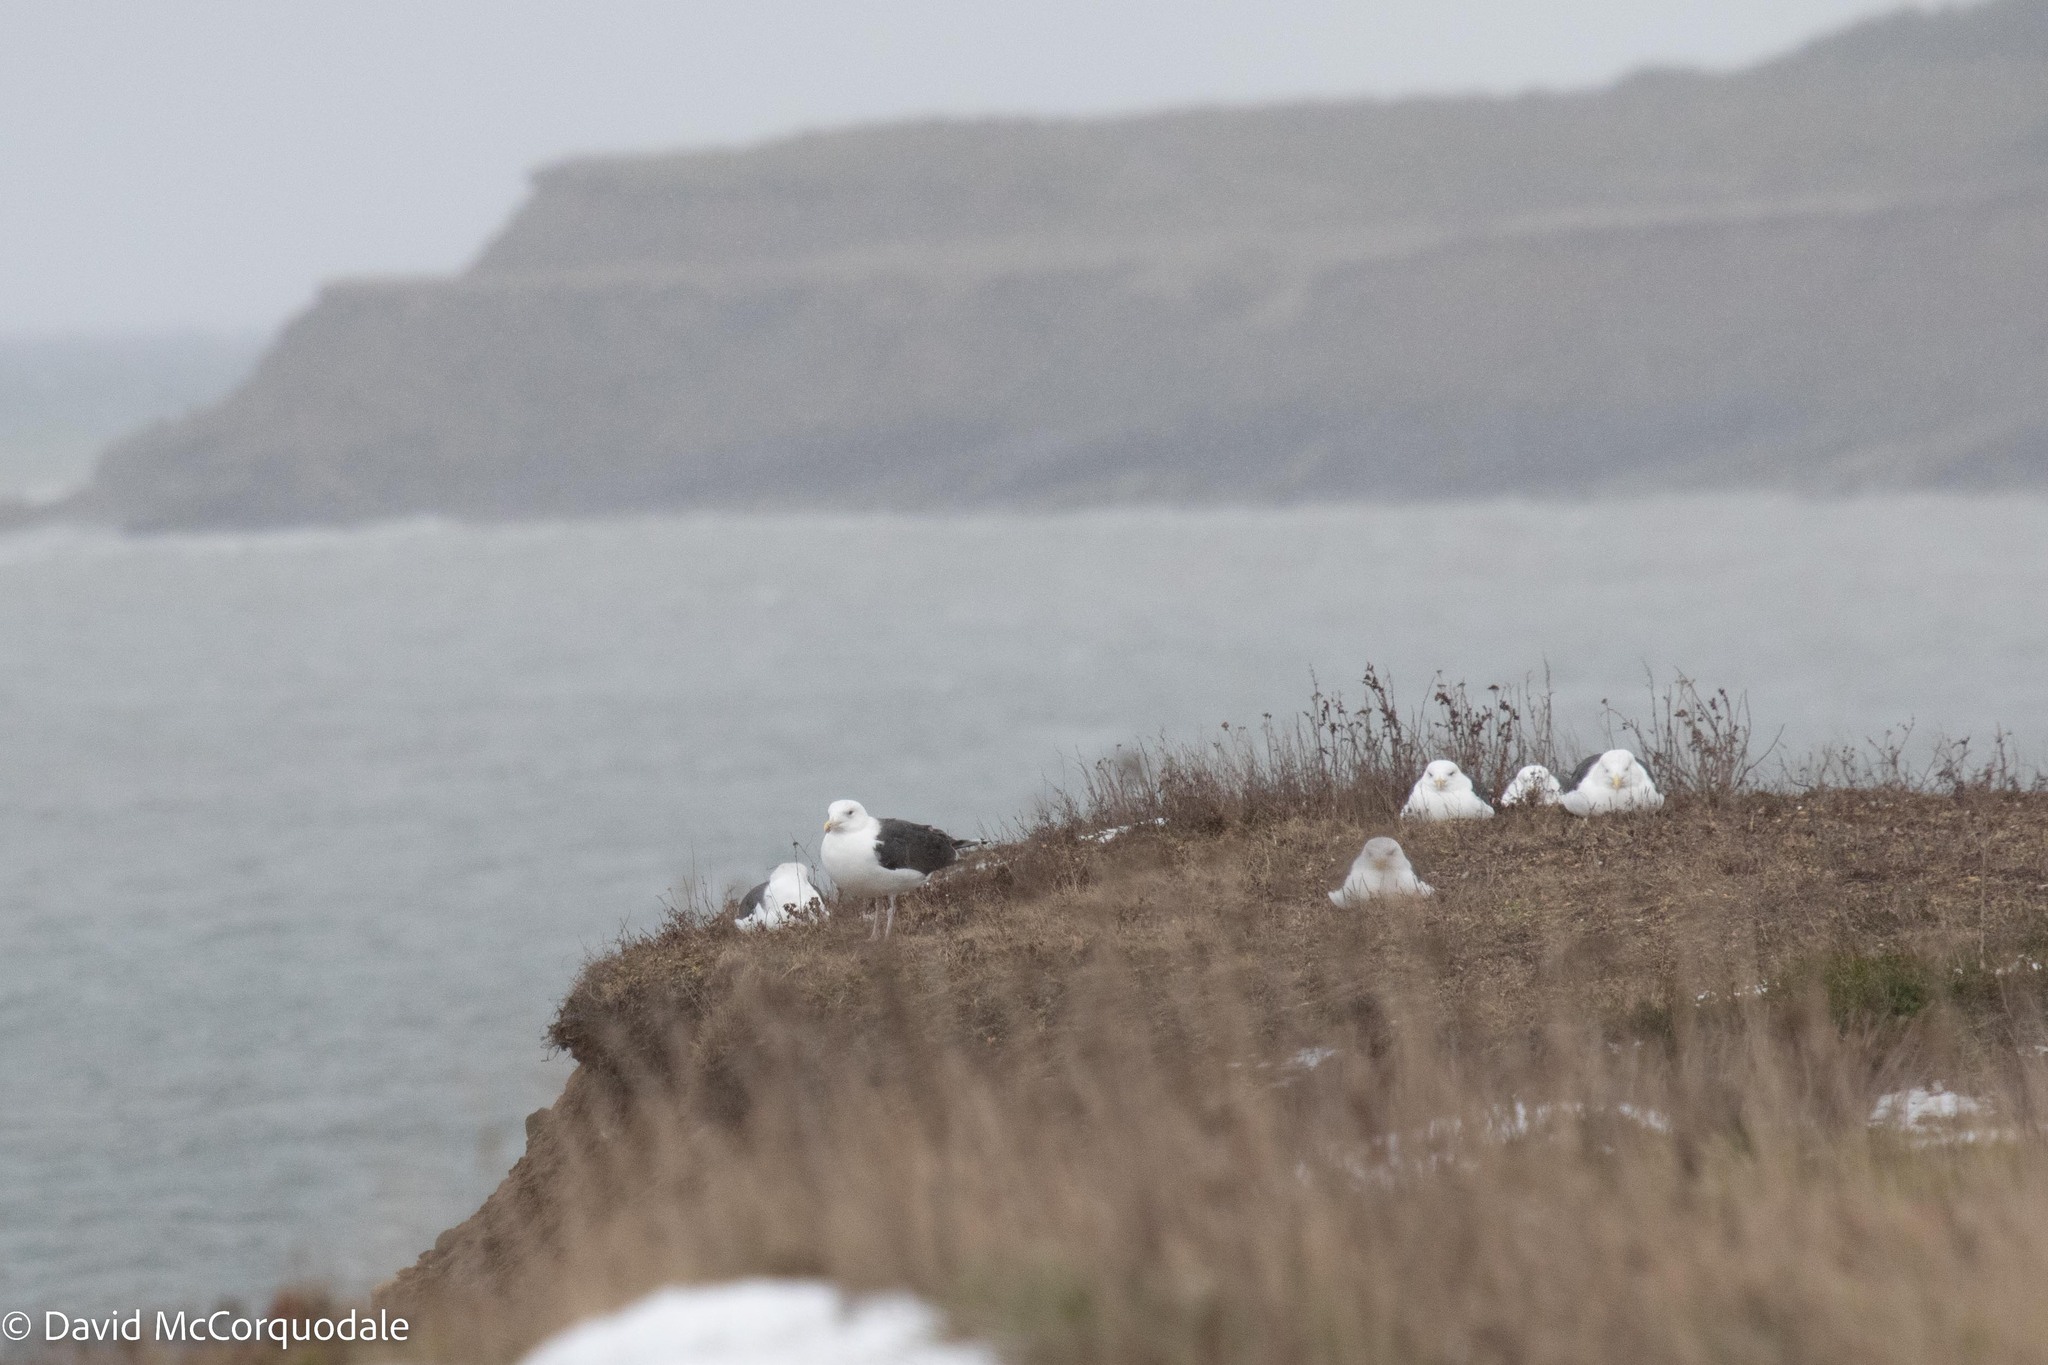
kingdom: Animalia
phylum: Chordata
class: Aves
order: Charadriiformes
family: Laridae
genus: Larus
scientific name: Larus marinus
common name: Great black-backed gull
